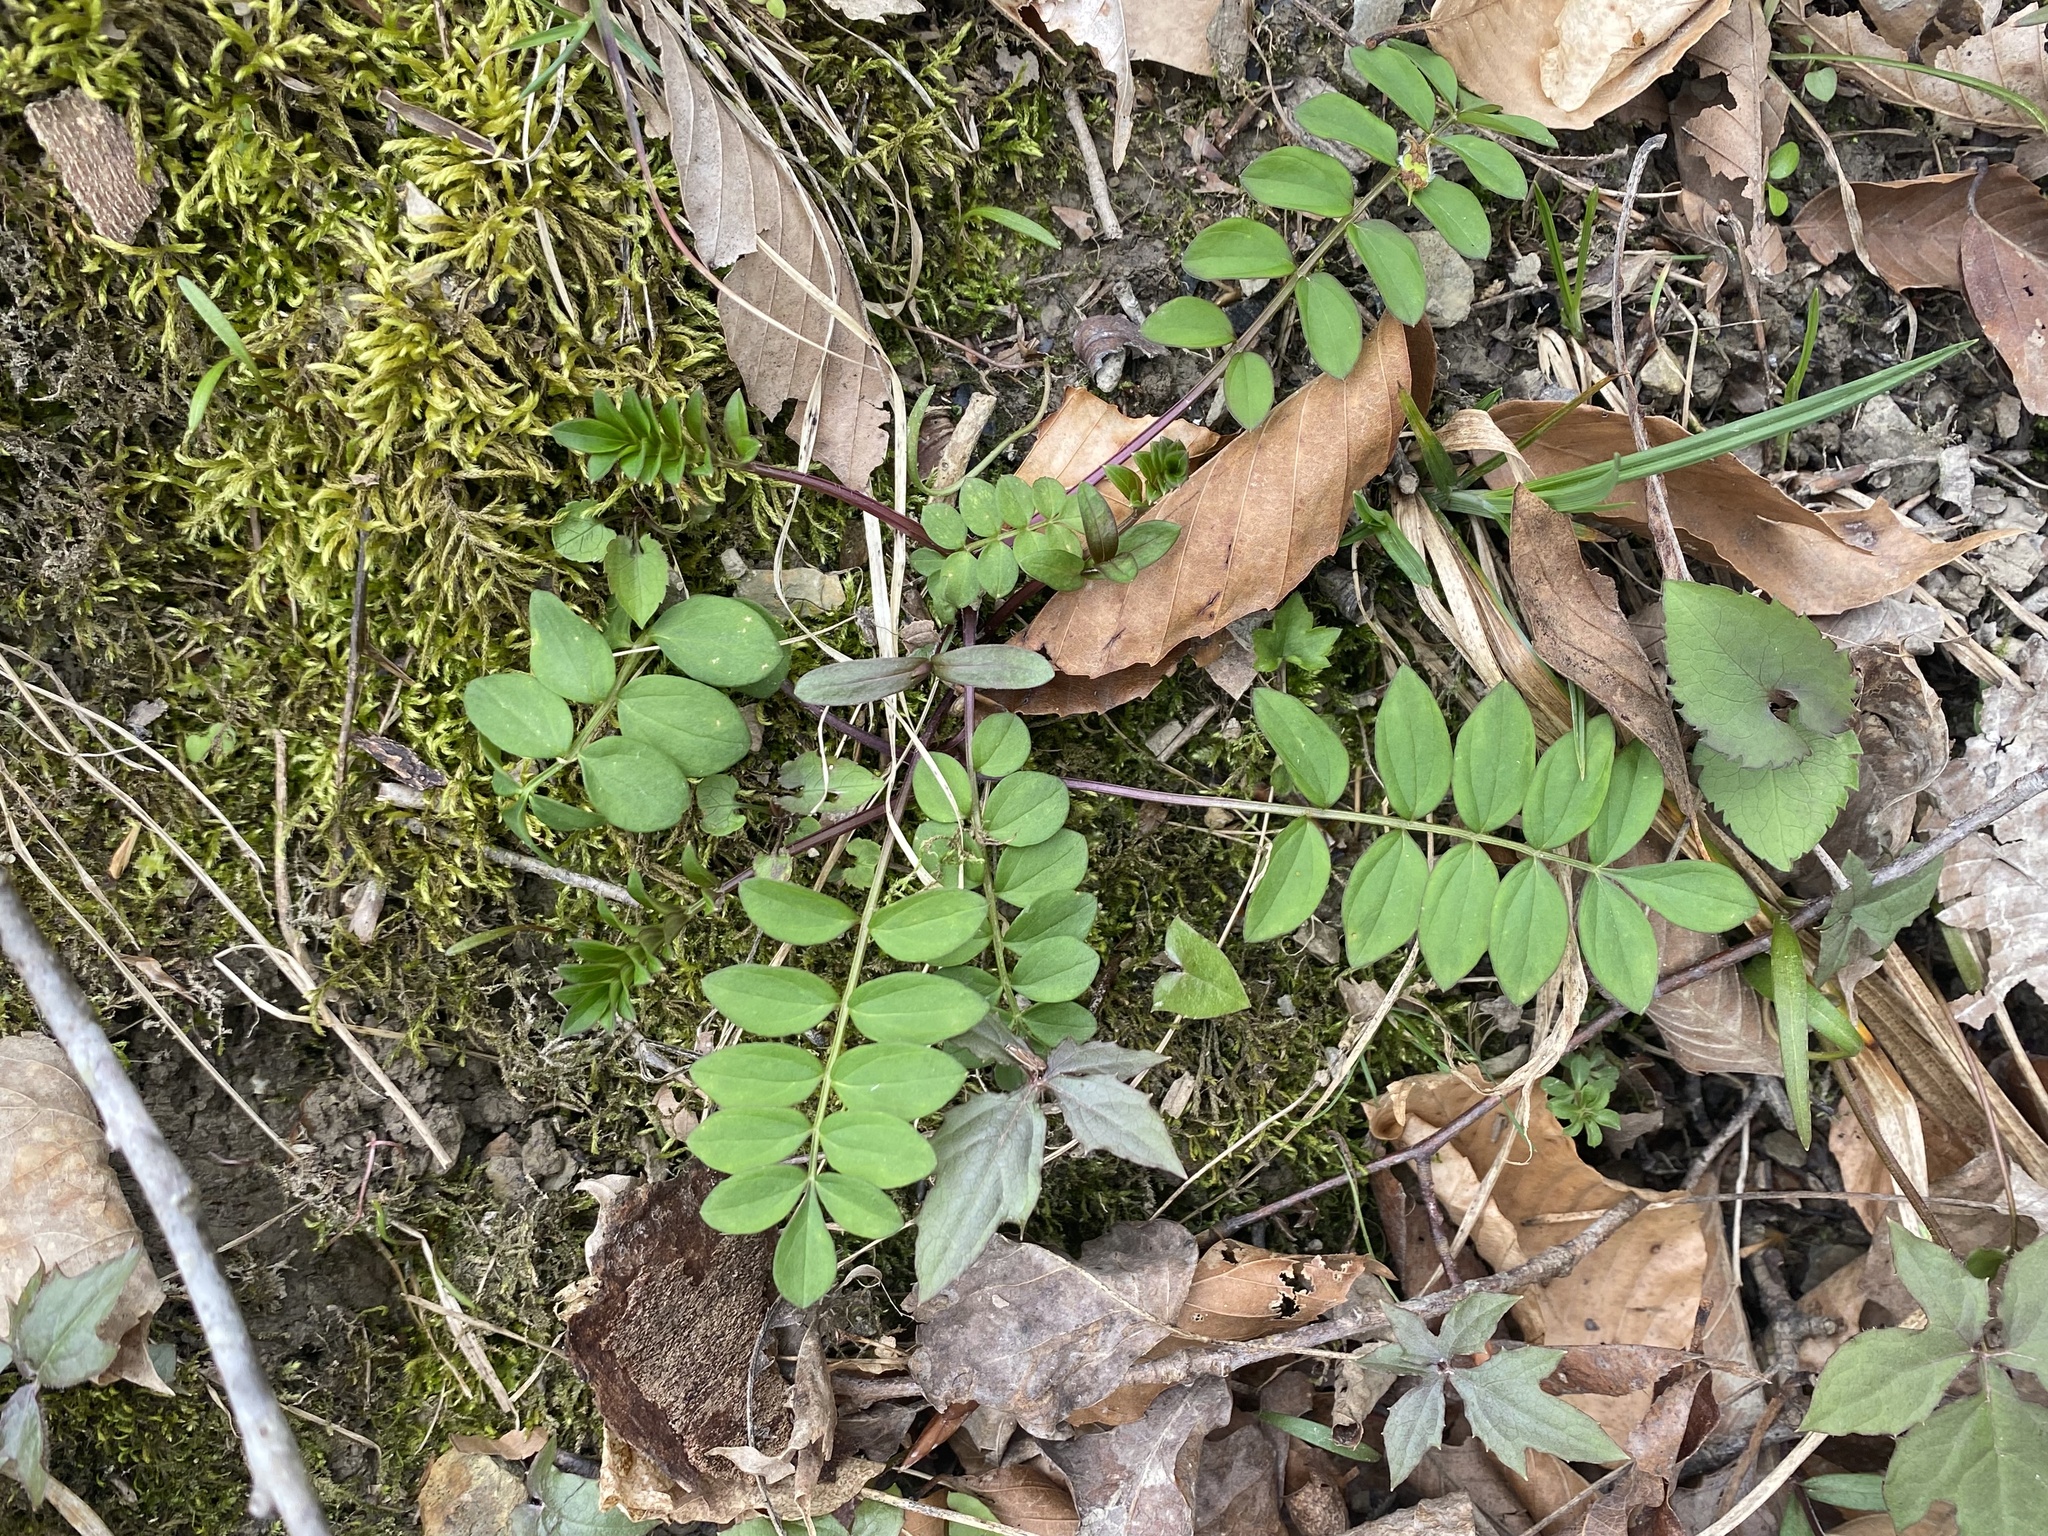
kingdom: Plantae
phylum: Tracheophyta
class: Magnoliopsida
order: Ericales
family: Polemoniaceae
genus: Polemonium
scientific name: Polemonium reptans
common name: Creeping jacob's-ladder
